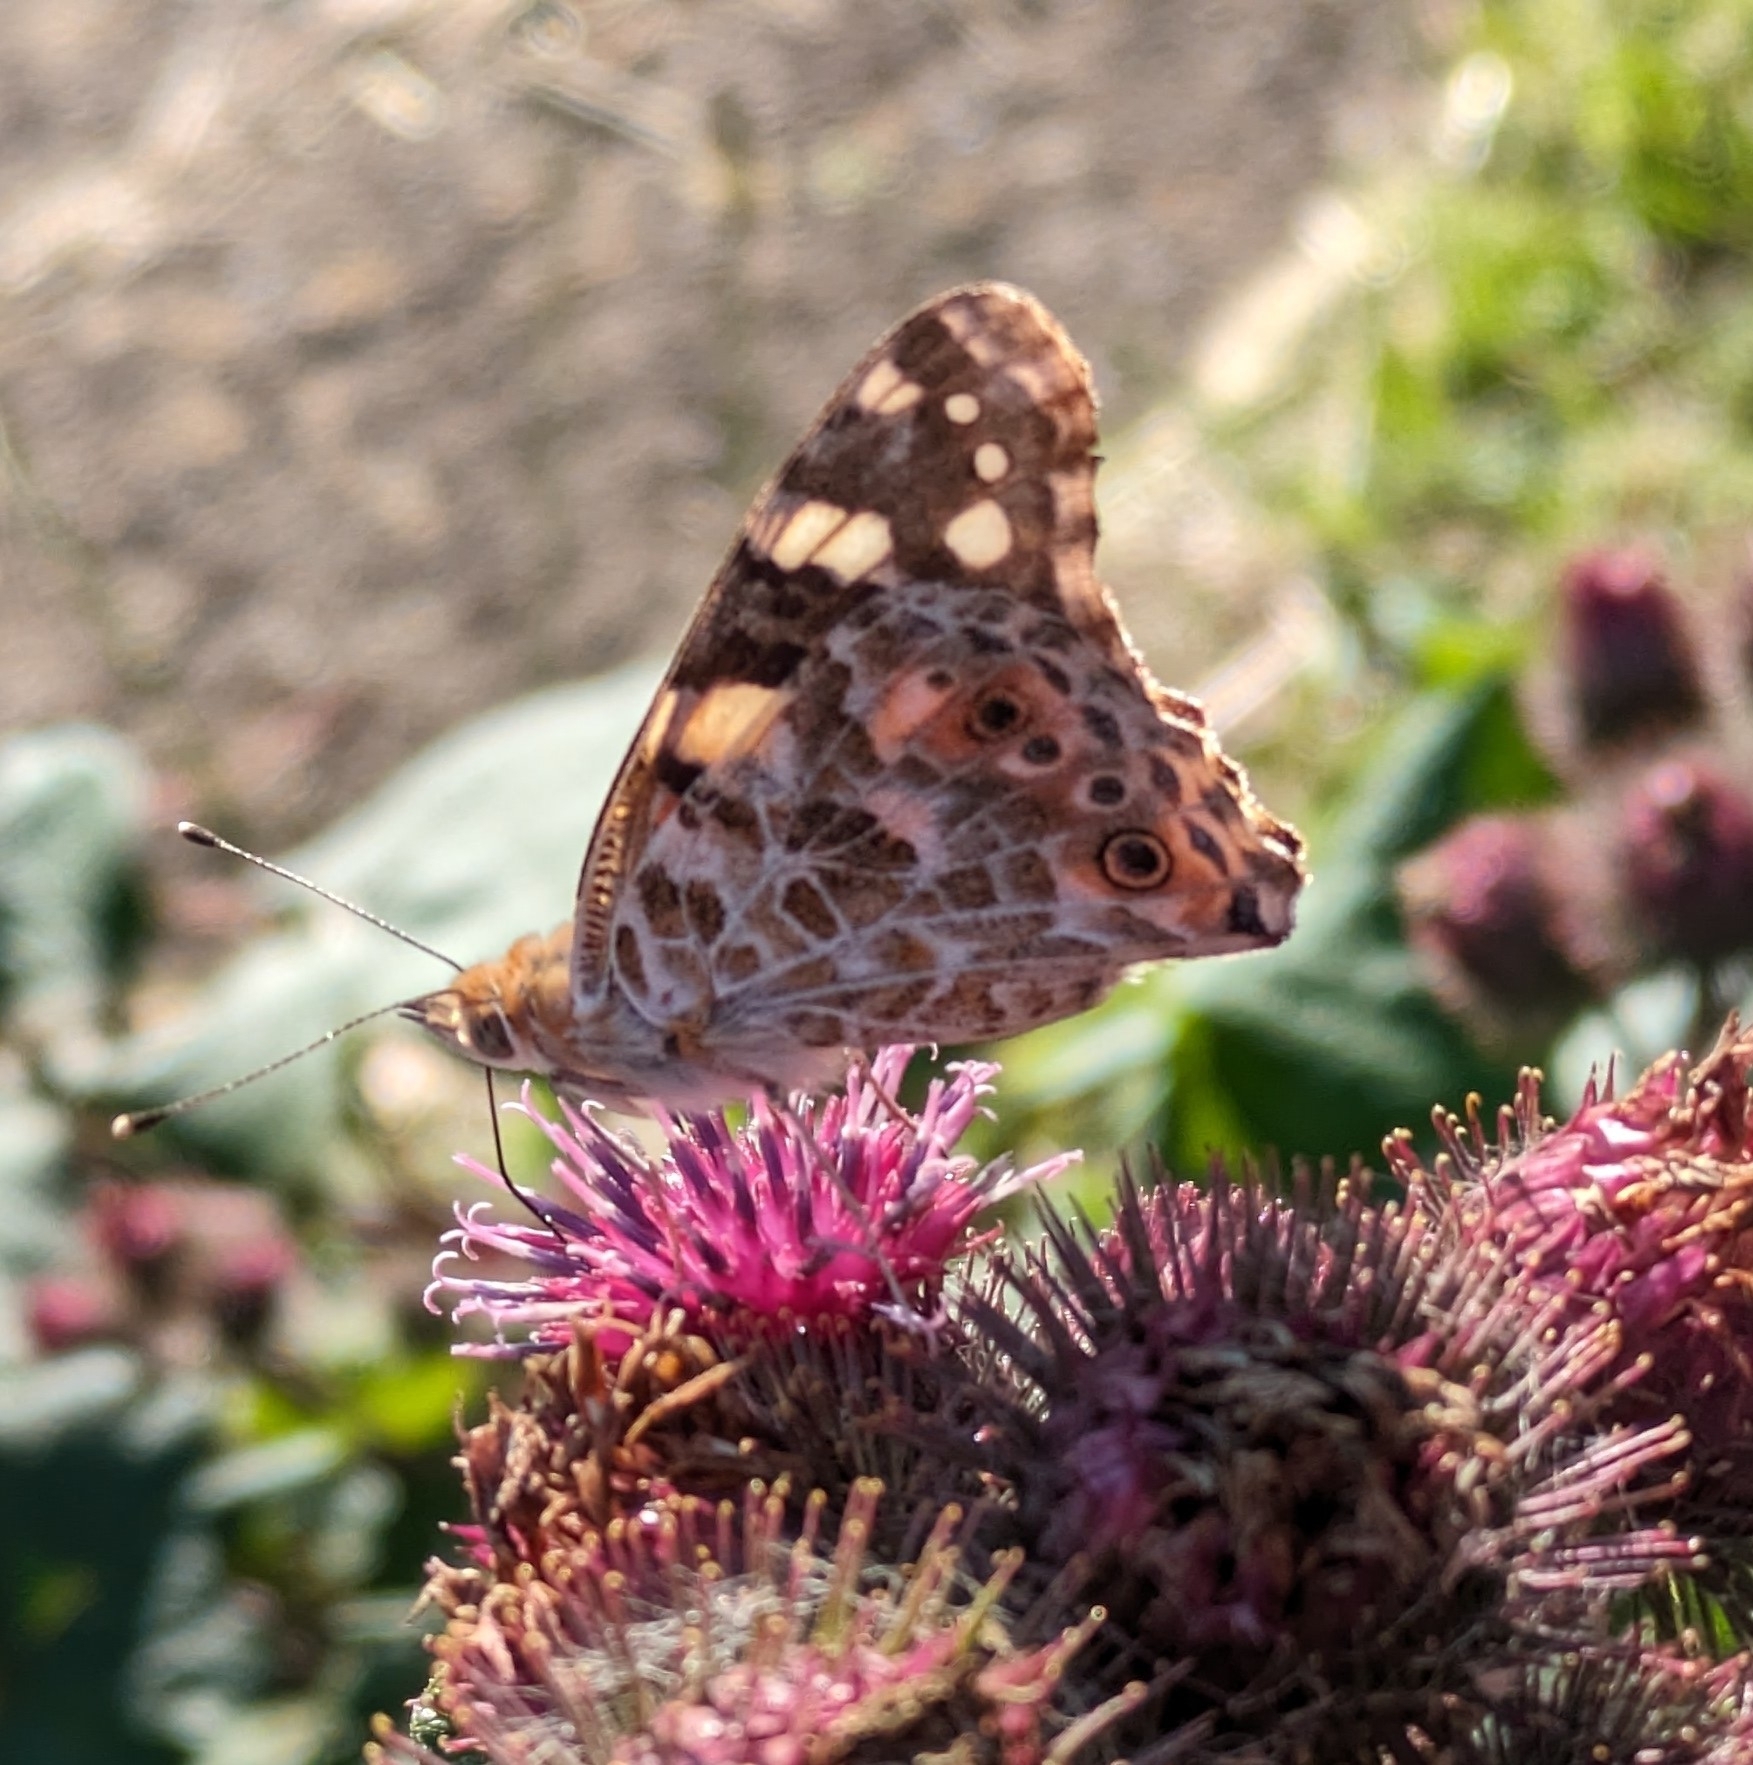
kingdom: Animalia
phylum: Arthropoda
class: Insecta
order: Lepidoptera
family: Nymphalidae
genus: Vanessa
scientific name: Vanessa cardui
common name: Painted lady
